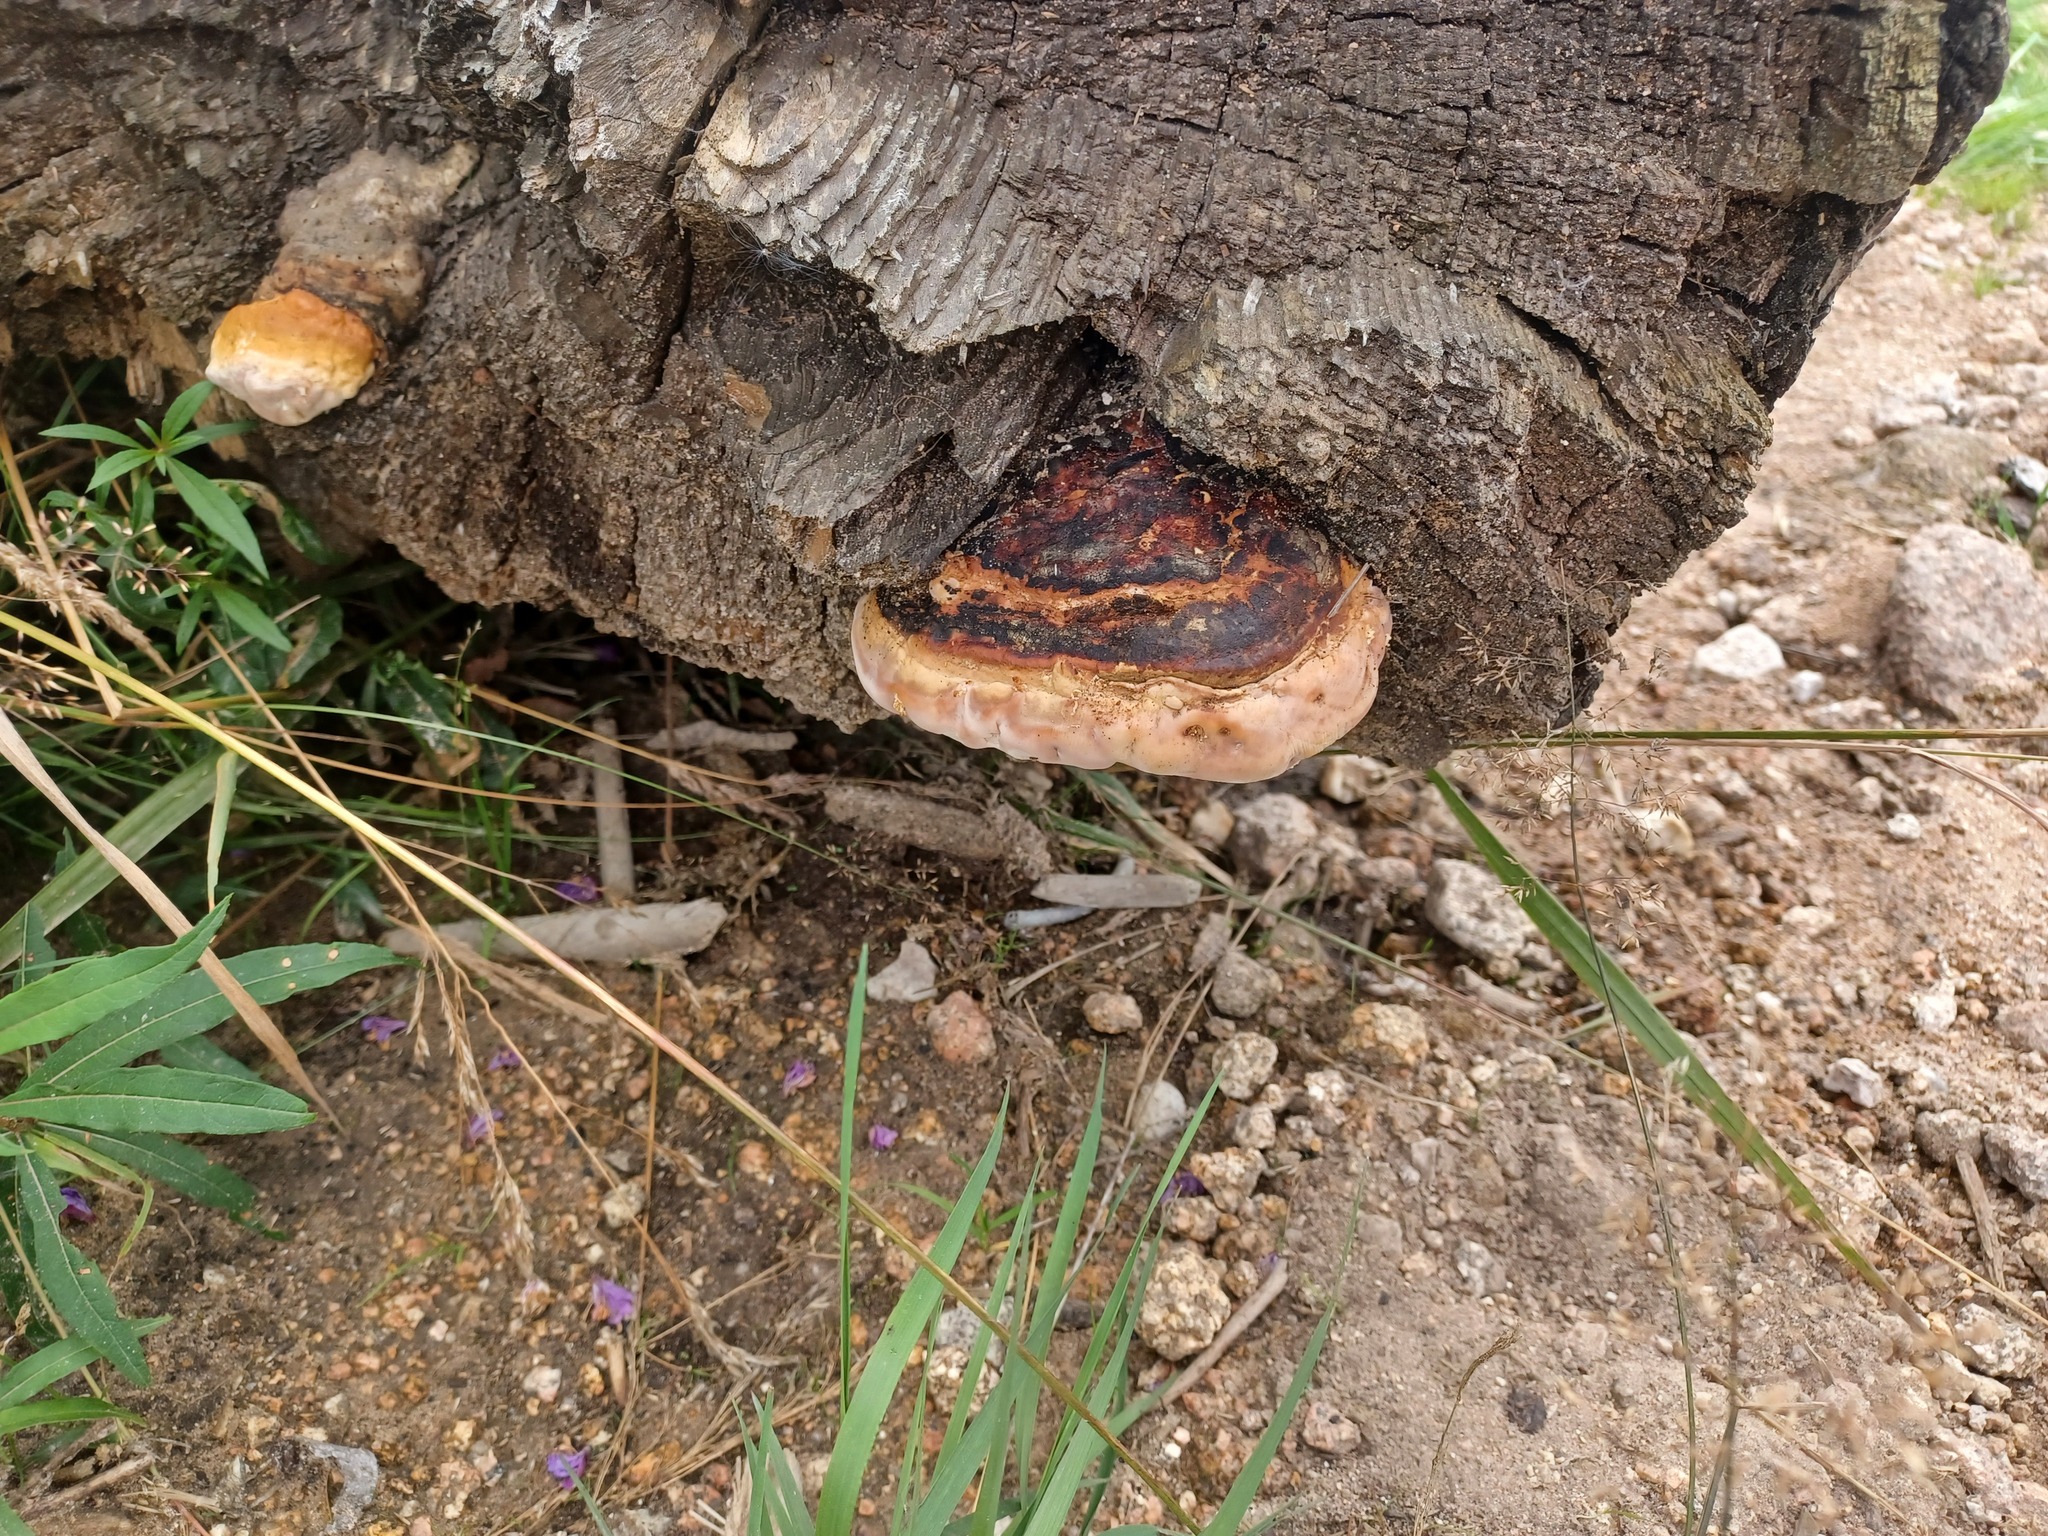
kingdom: Fungi
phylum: Basidiomycota
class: Agaricomycetes
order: Polyporales
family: Fomitopsidaceae
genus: Fomitopsis
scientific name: Fomitopsis pinicola
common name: Red-belted bracket
